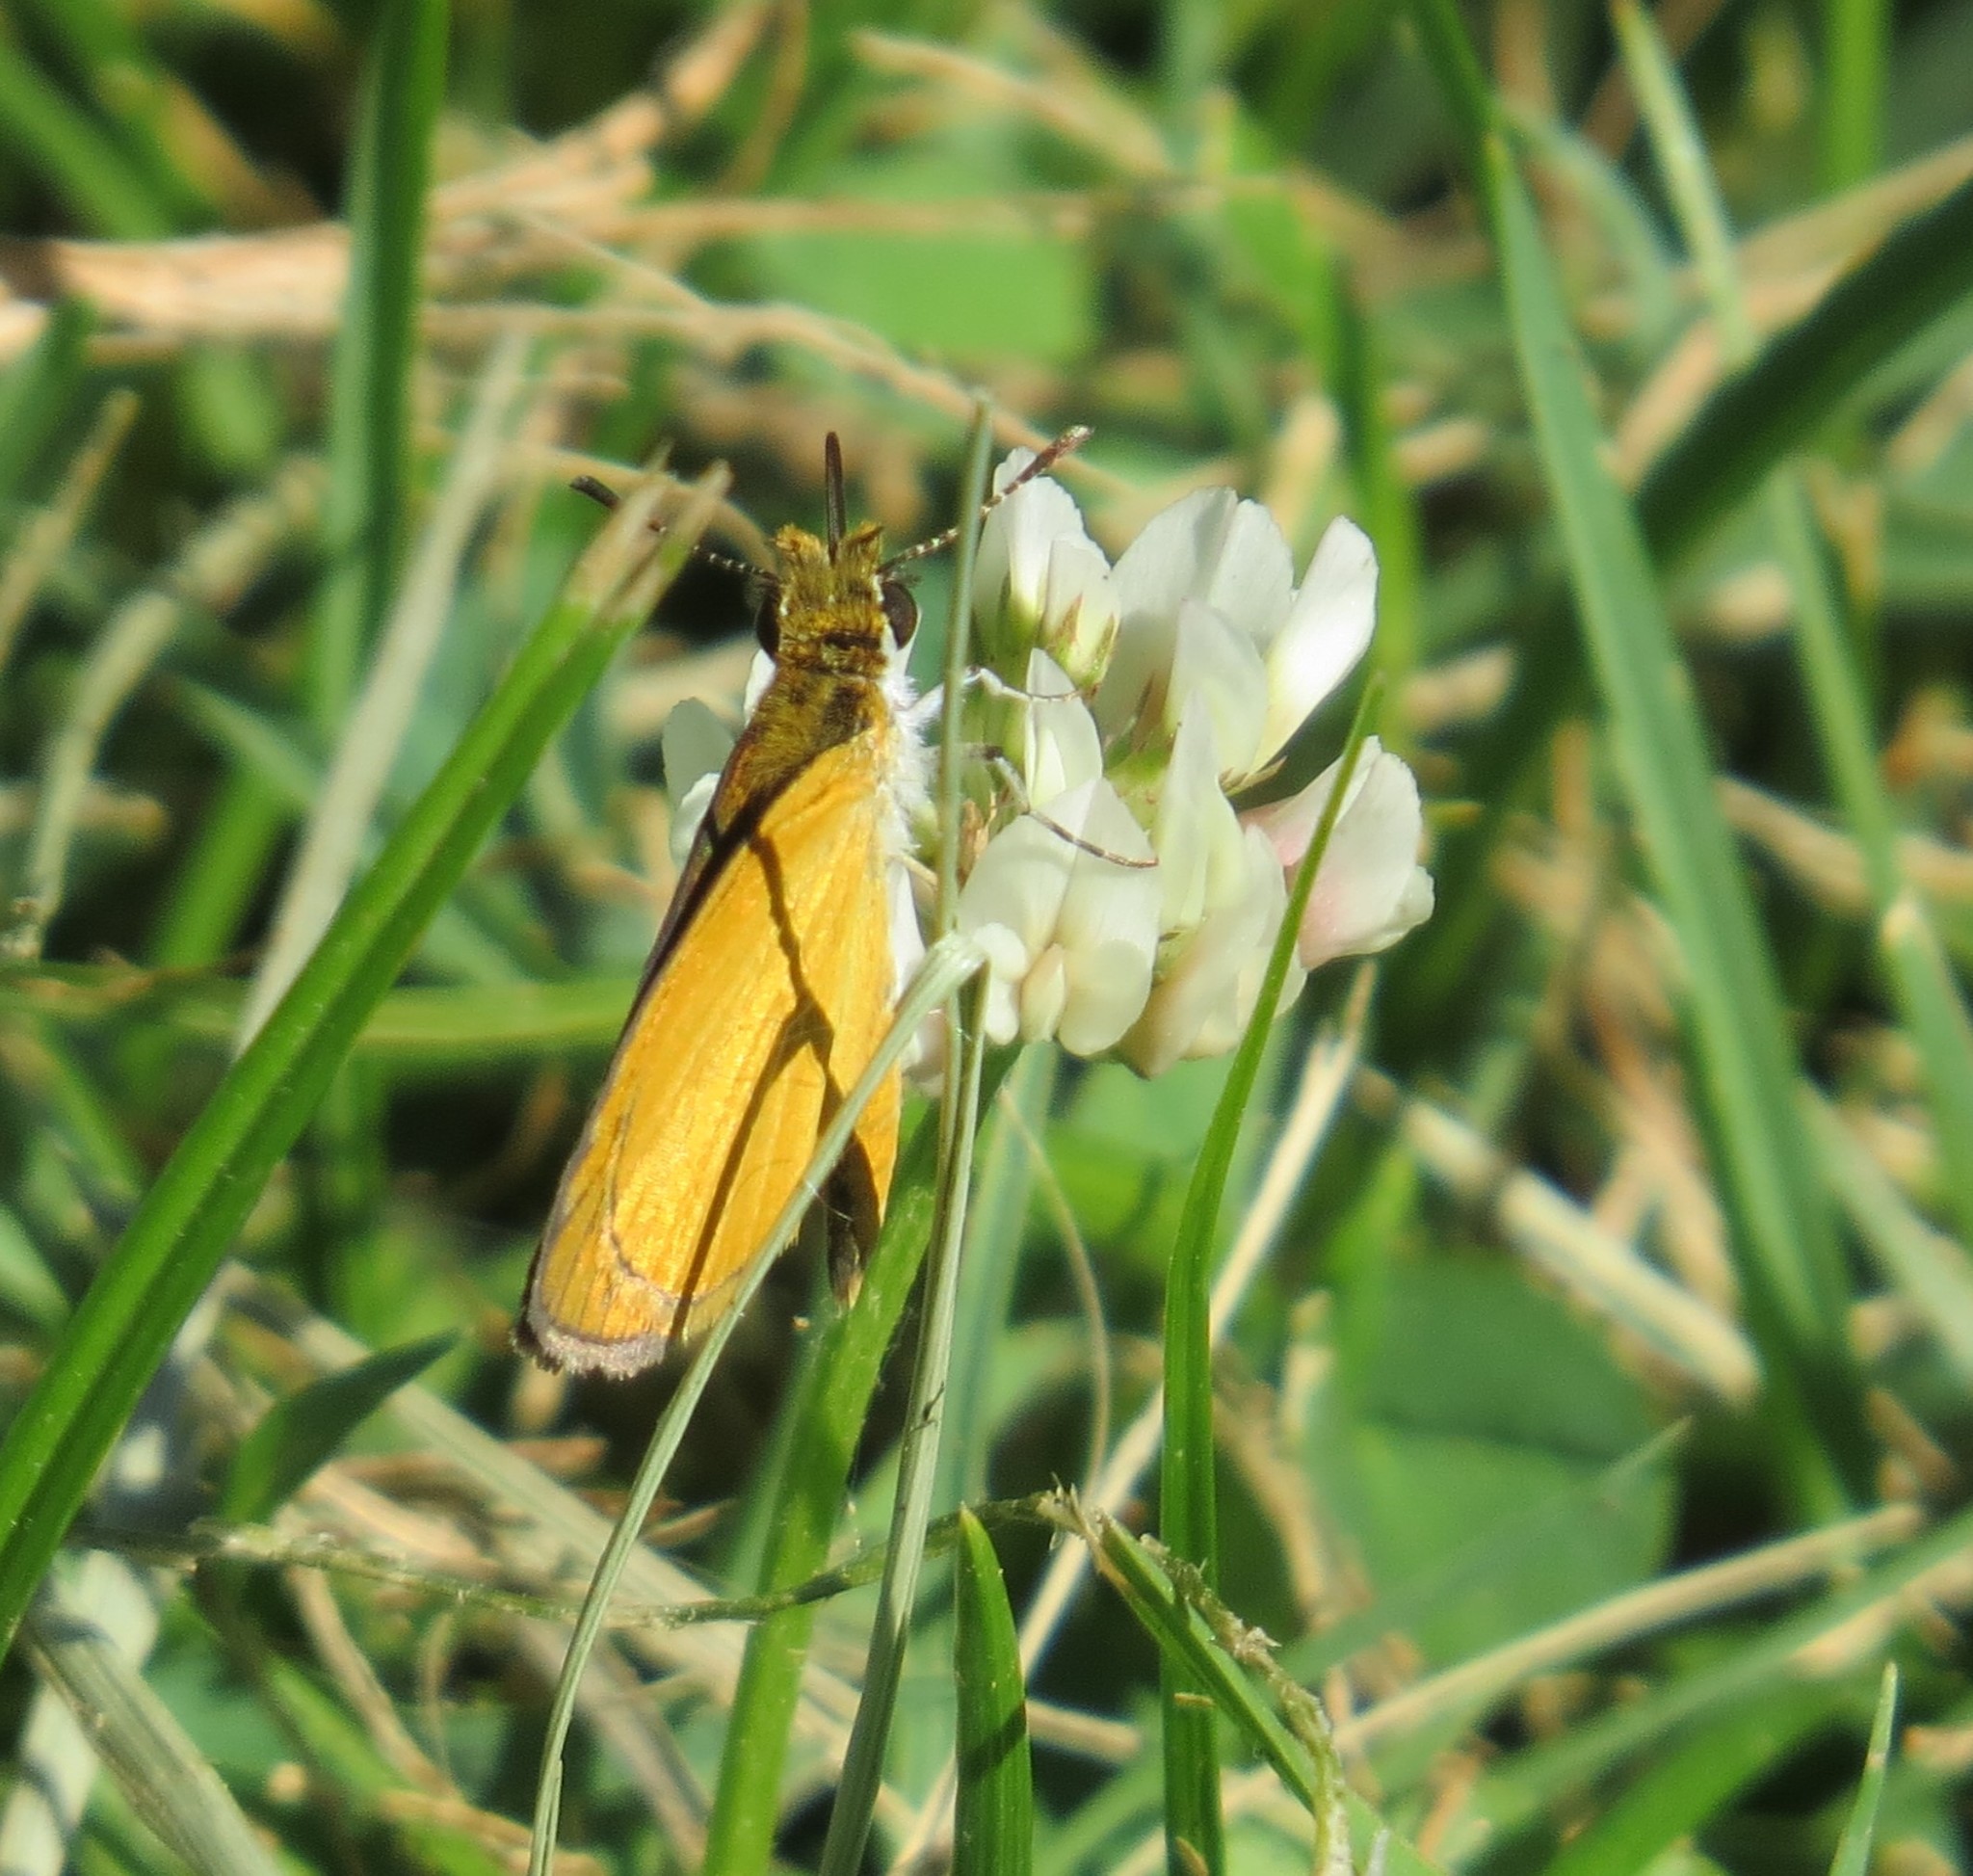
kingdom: Animalia
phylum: Arthropoda
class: Insecta
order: Lepidoptera
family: Hesperiidae
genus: Ancyloxypha
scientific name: Ancyloxypha numitor
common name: Least skipper
